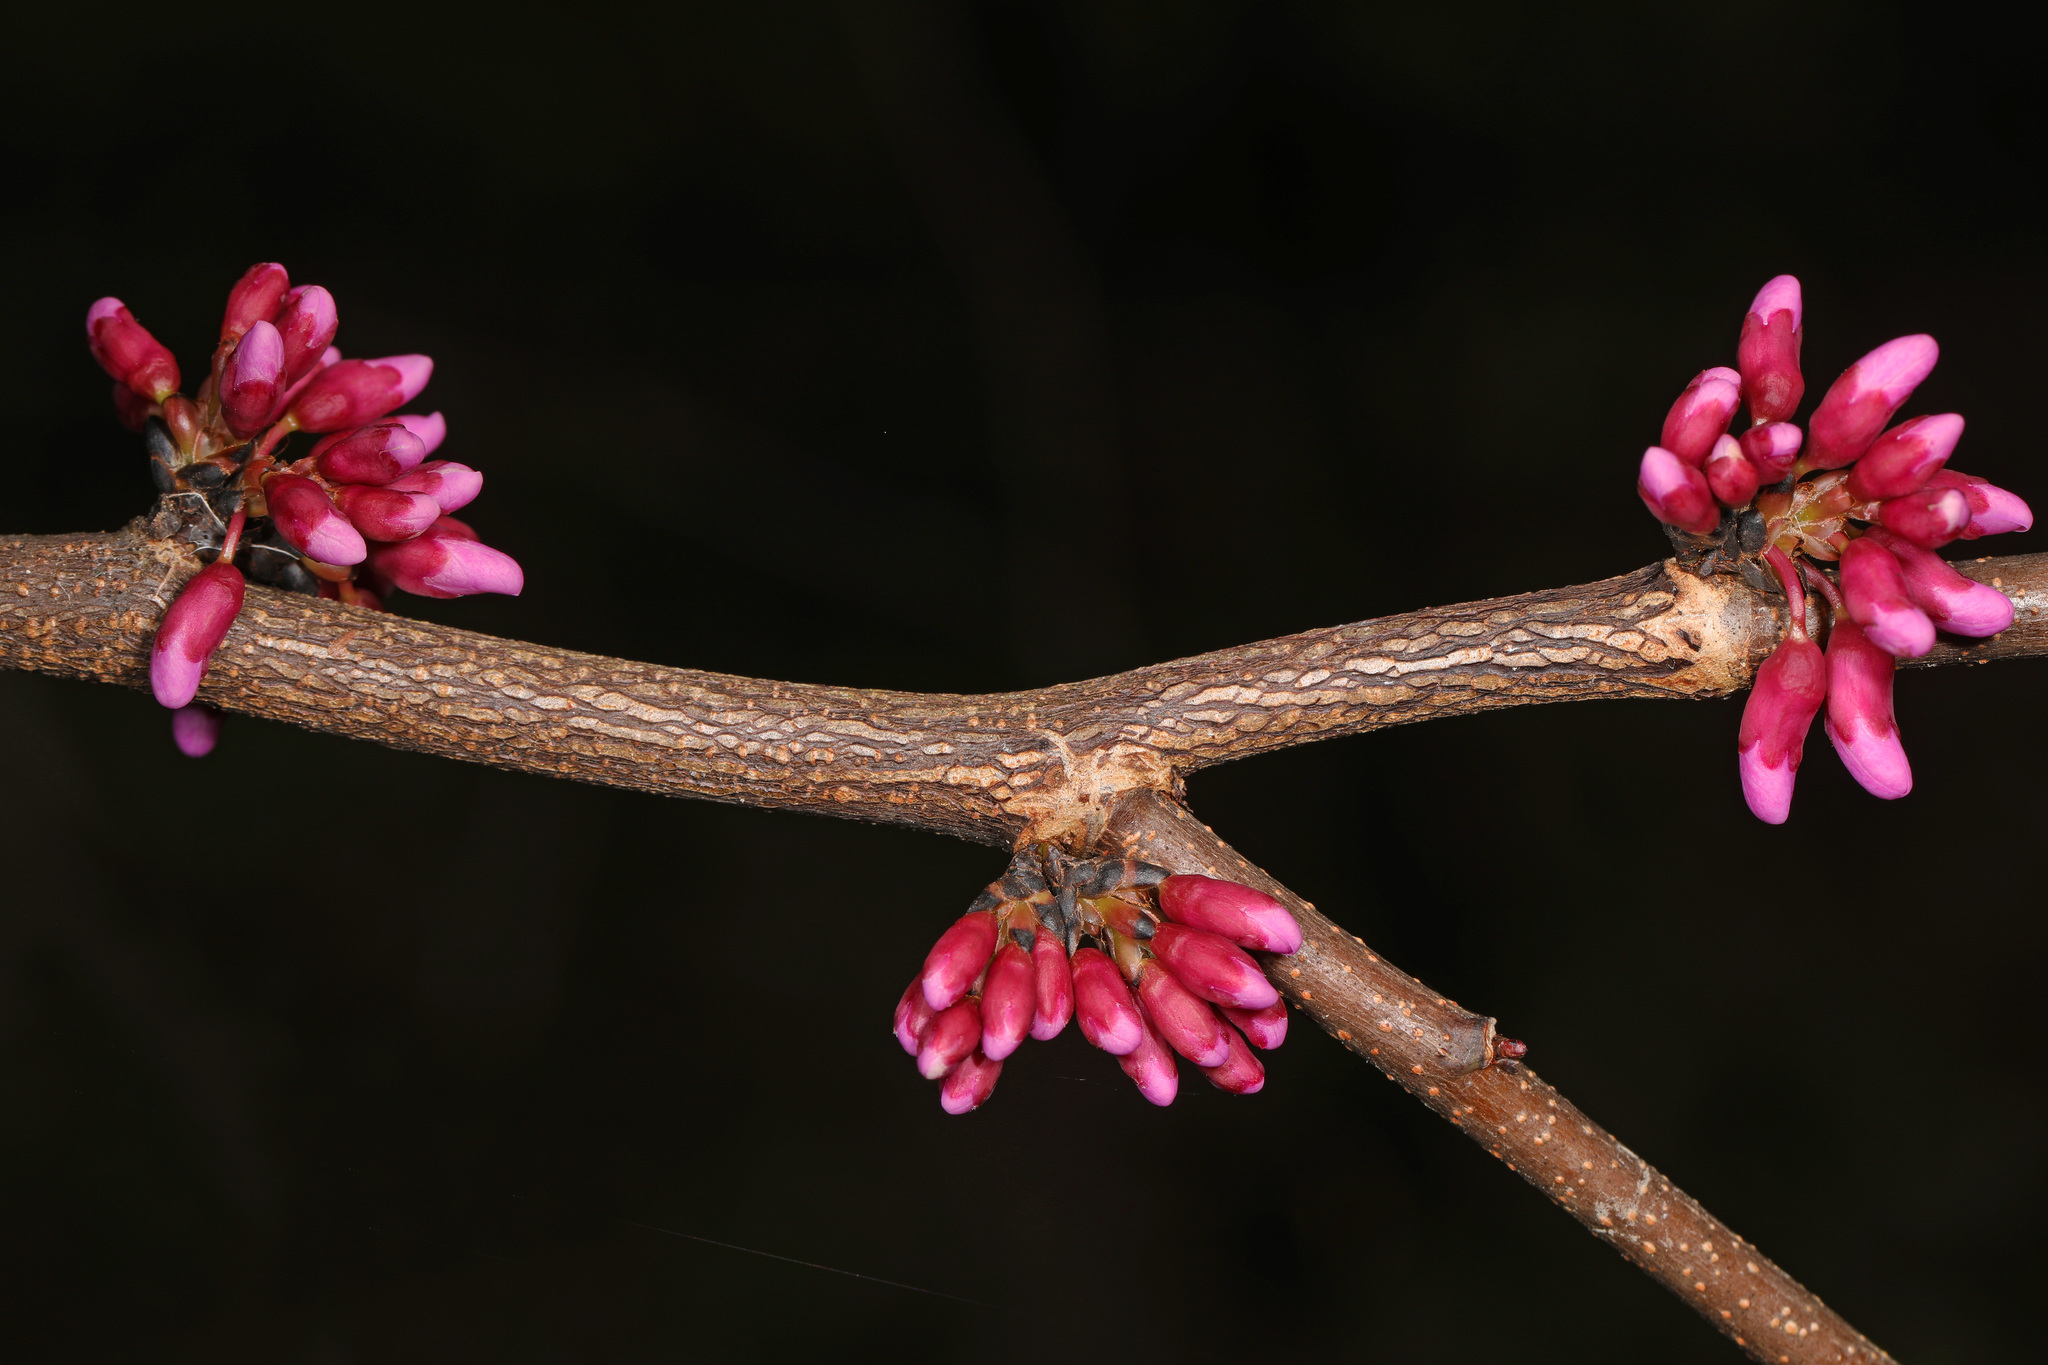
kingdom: Plantae
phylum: Tracheophyta
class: Magnoliopsida
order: Fabales
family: Fabaceae
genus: Cercis
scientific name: Cercis canadensis
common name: Eastern redbud
